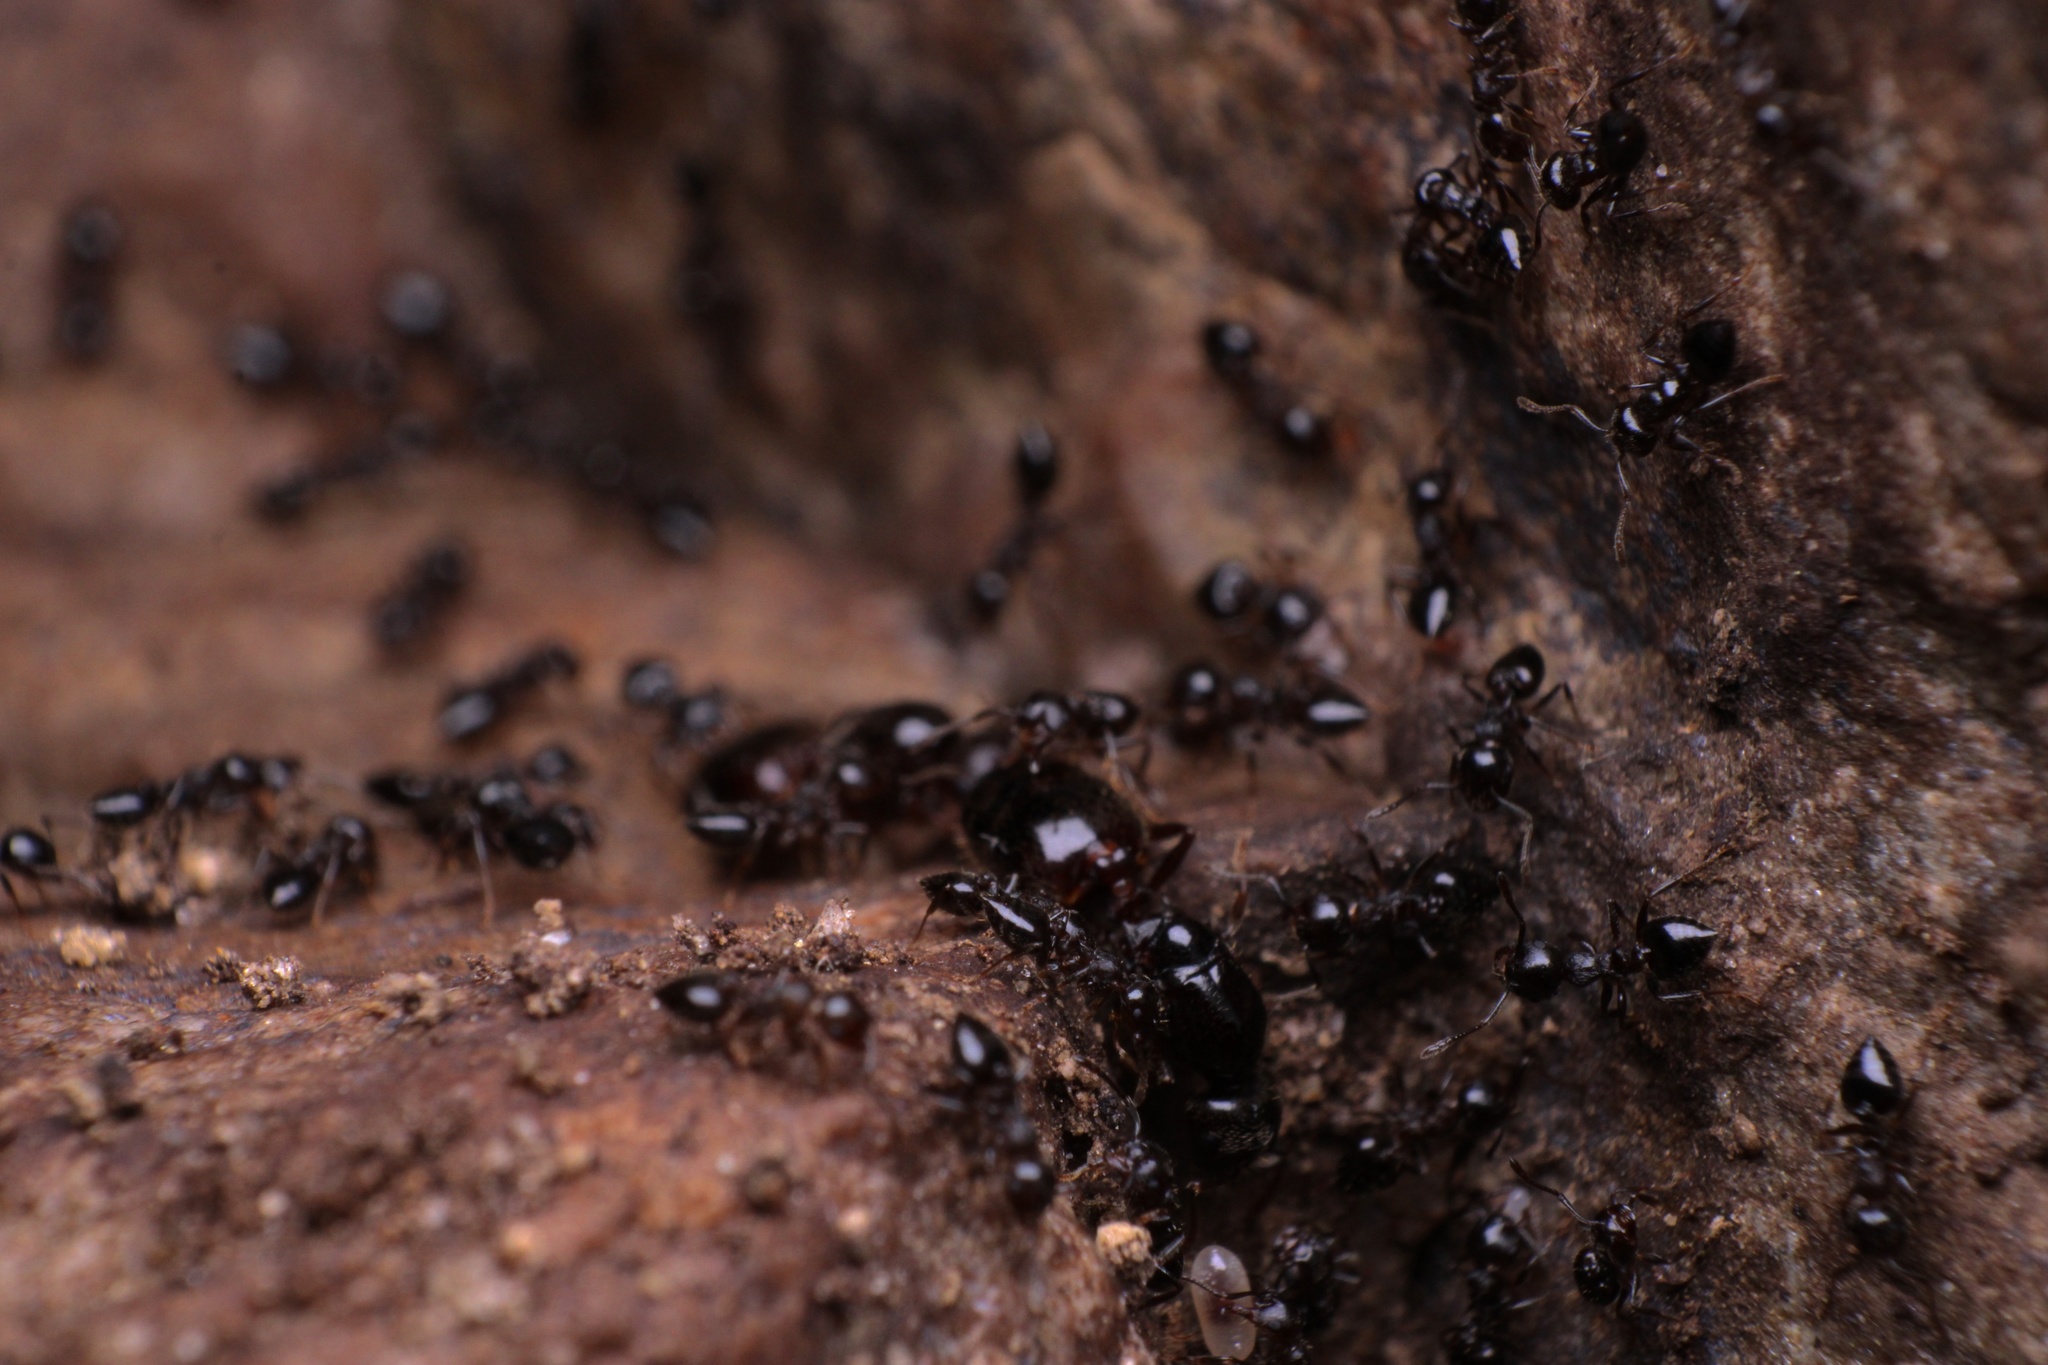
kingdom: Animalia
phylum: Arthropoda
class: Insecta
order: Hymenoptera
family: Formicidae
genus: Crematogaster
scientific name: Crematogaster lineolata
